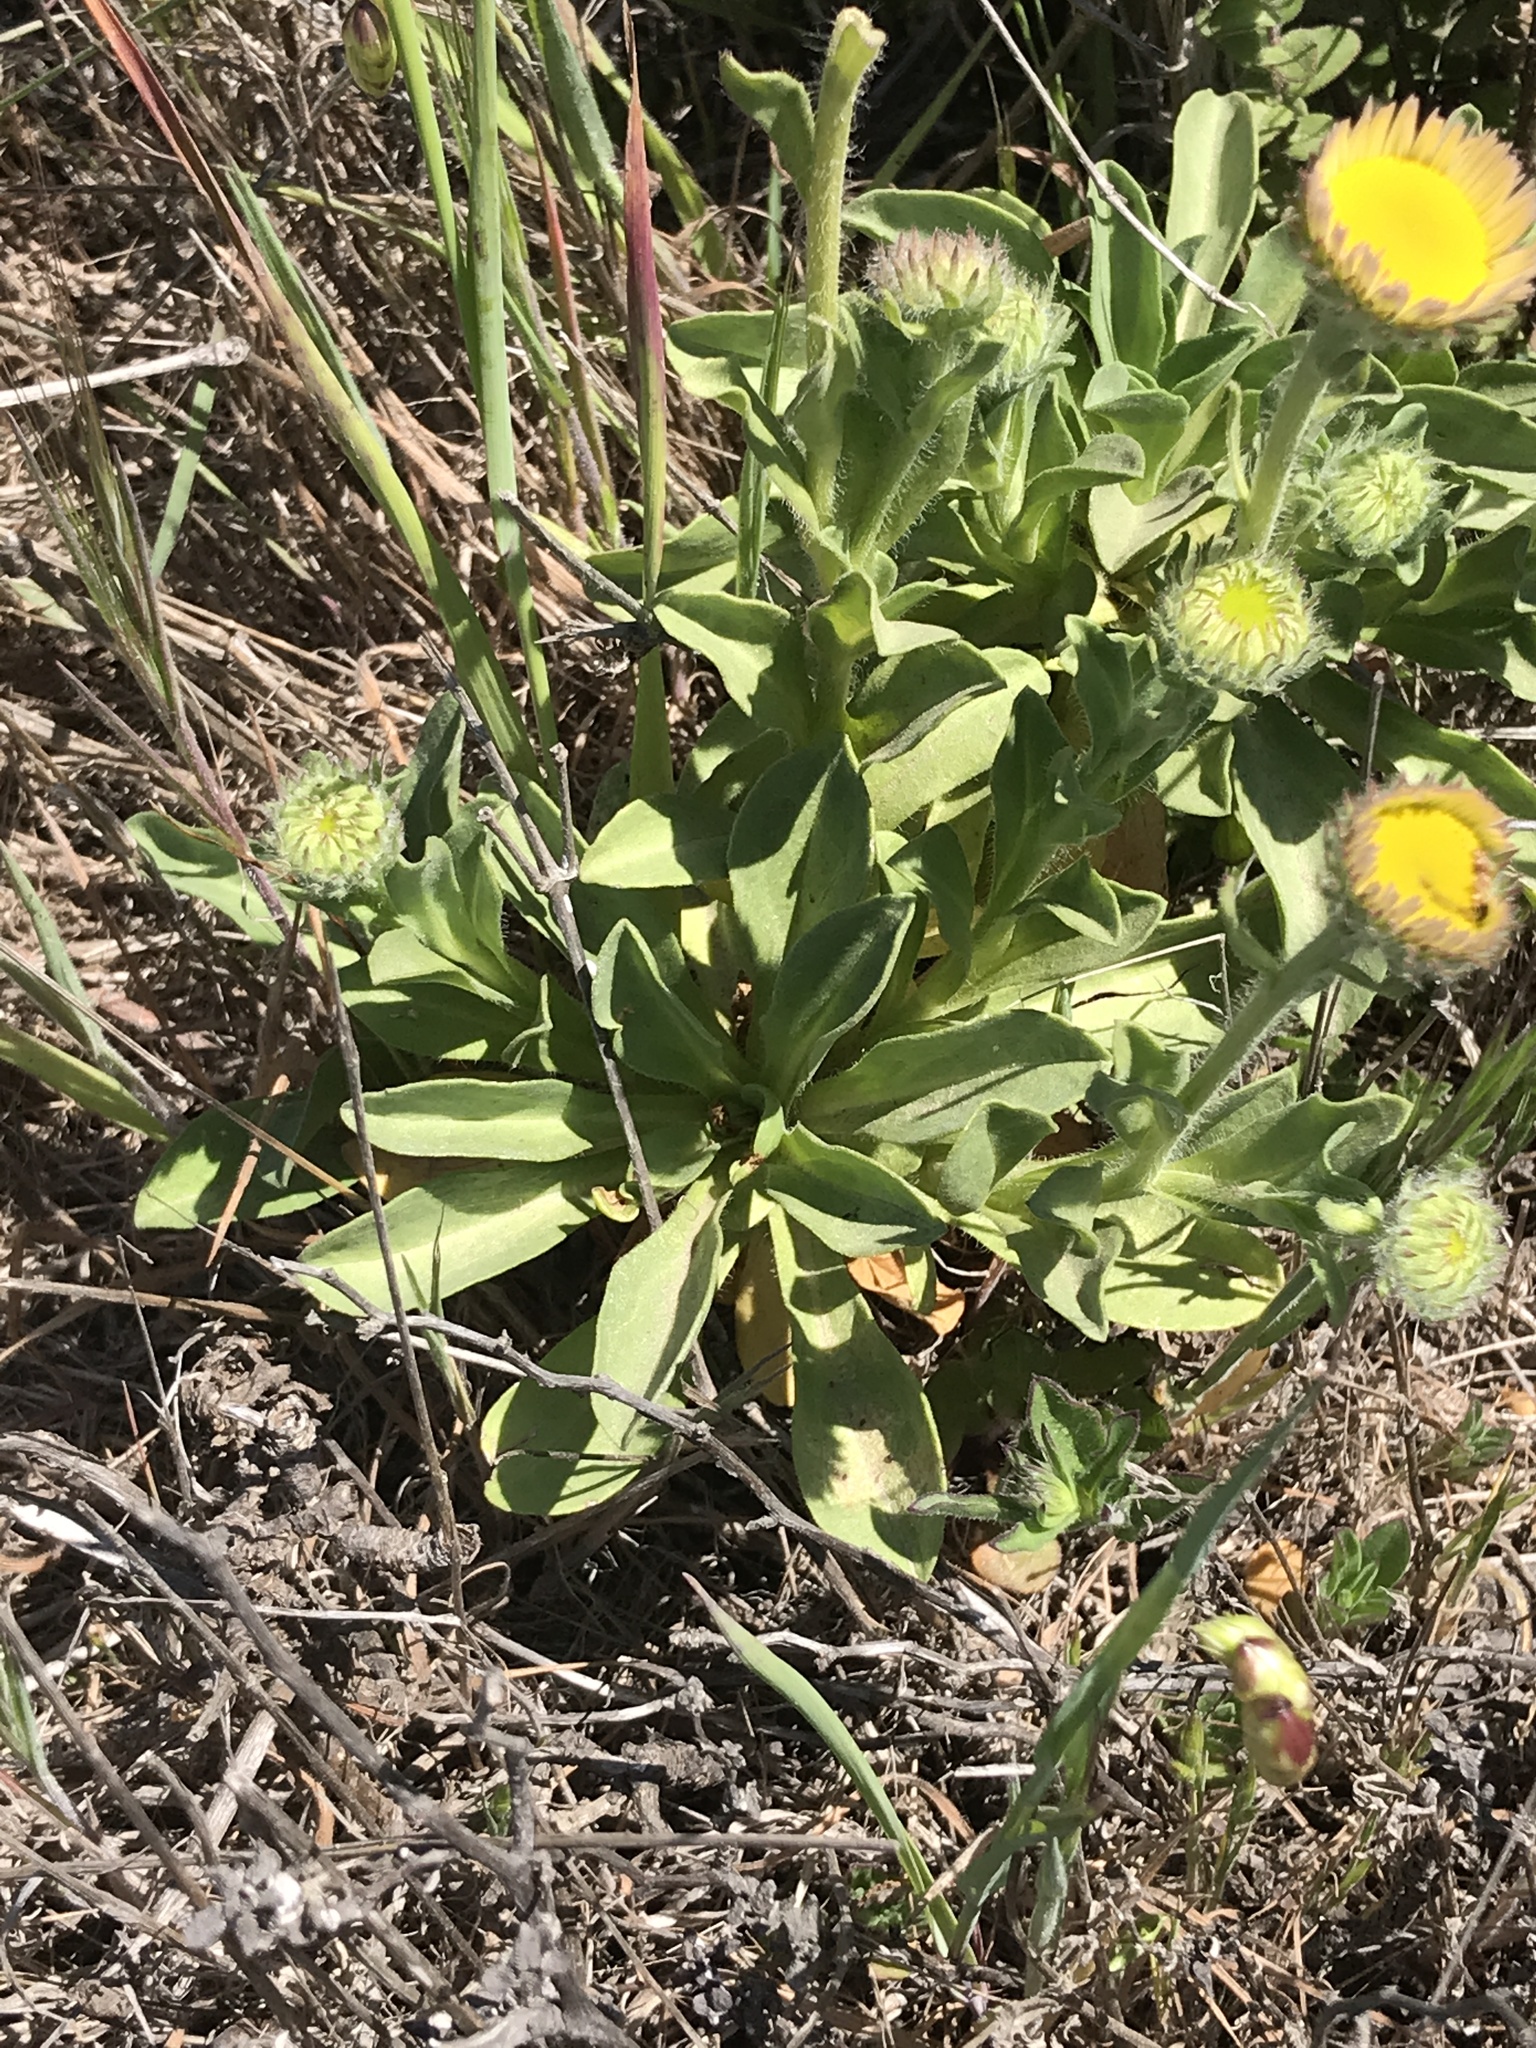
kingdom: Plantae
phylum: Tracheophyta
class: Magnoliopsida
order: Asterales
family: Asteraceae
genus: Erigeron
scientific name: Erigeron glaucus
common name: Seaside daisy
